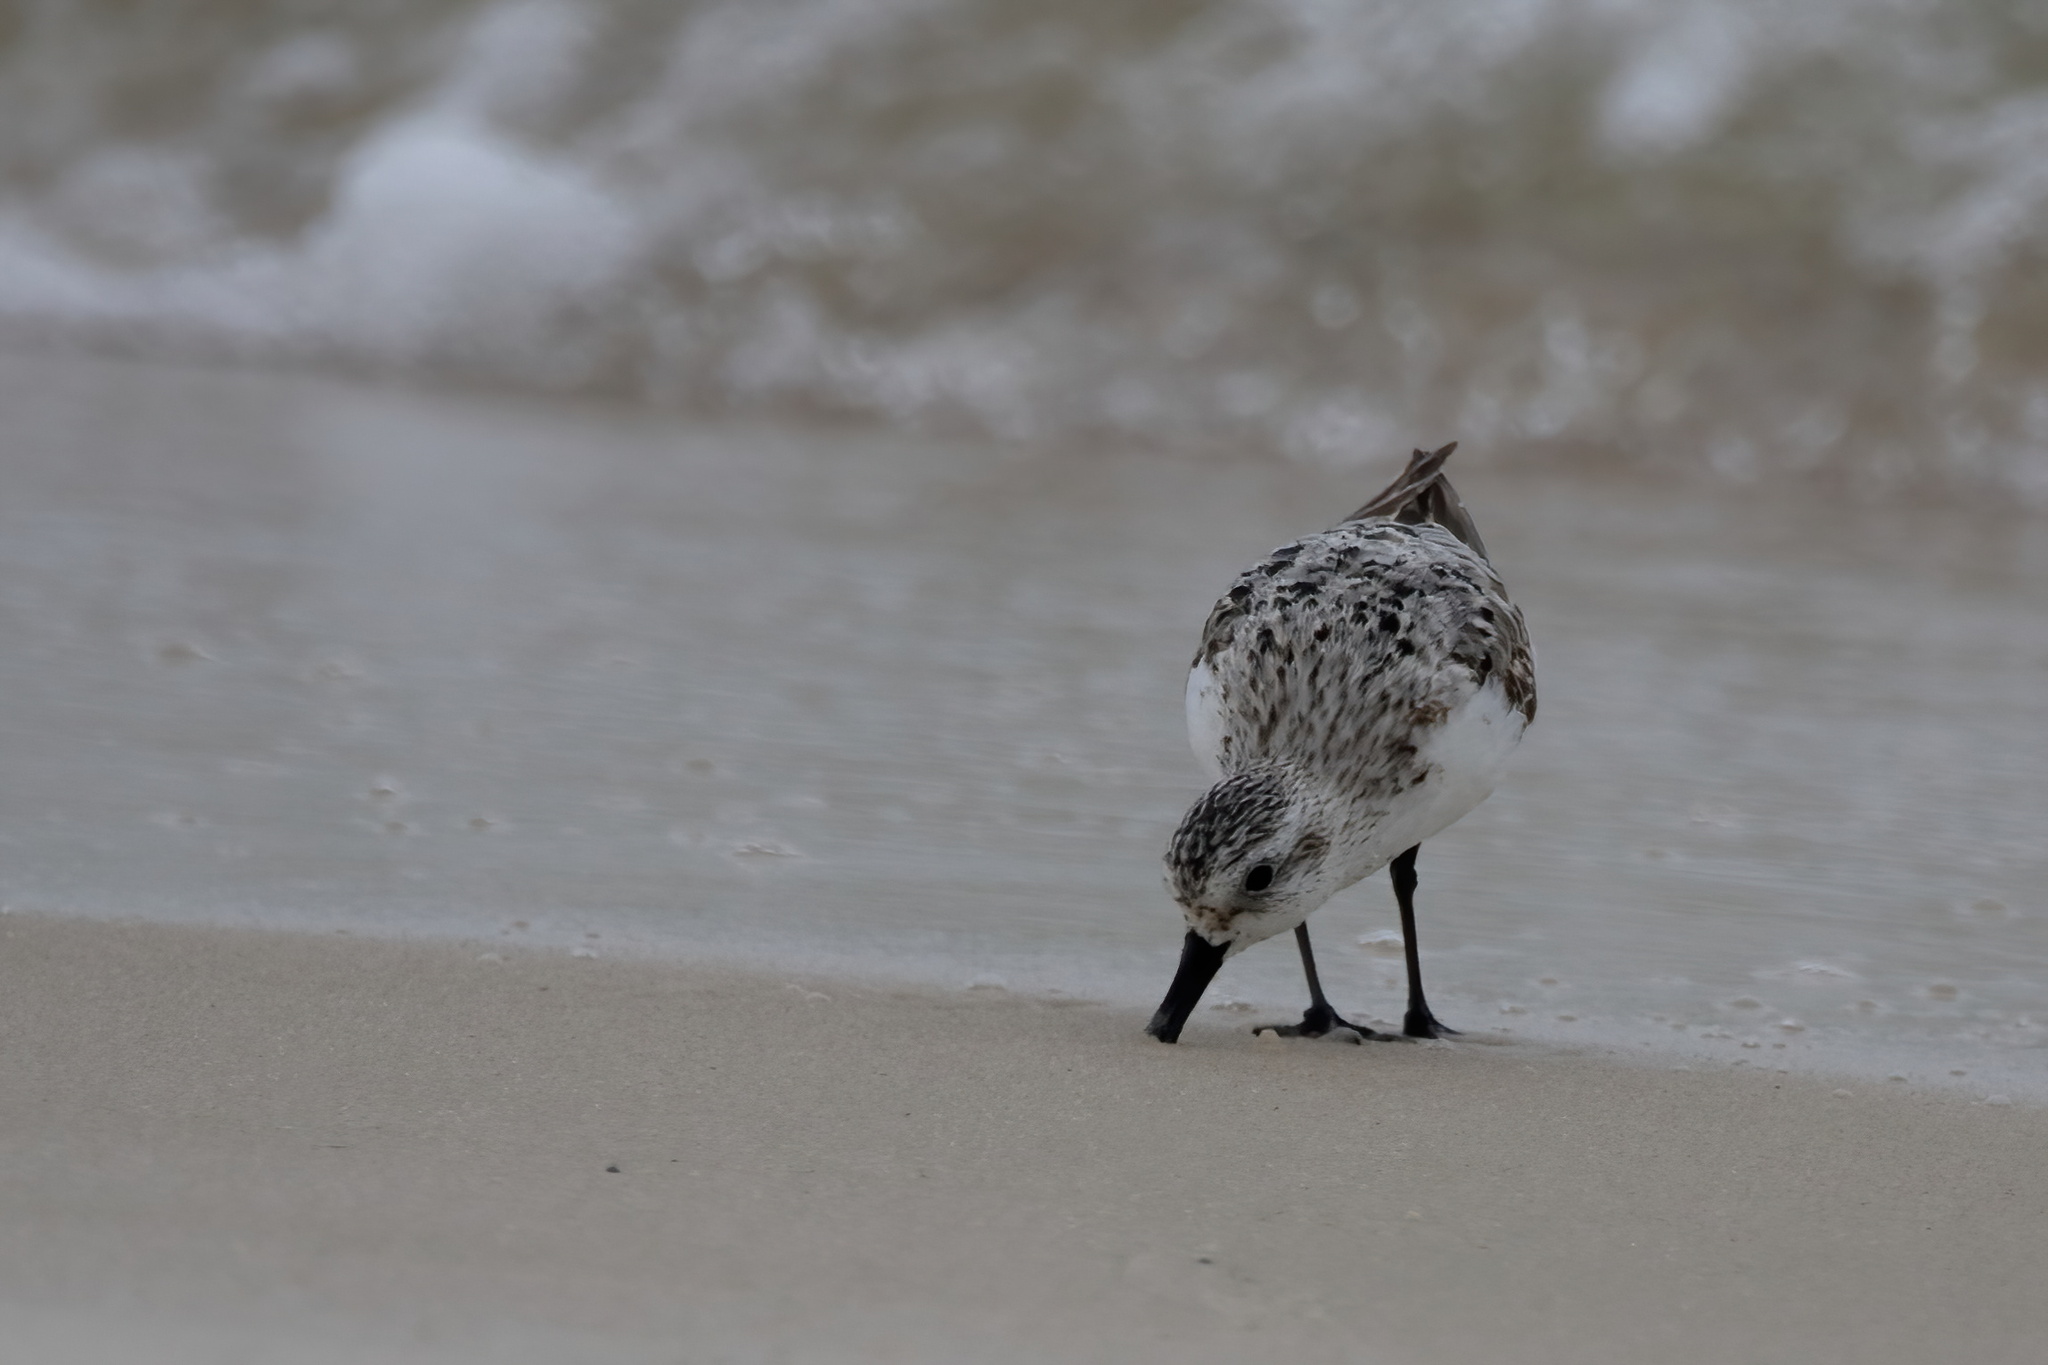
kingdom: Animalia
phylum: Chordata
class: Aves
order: Charadriiformes
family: Scolopacidae
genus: Calidris
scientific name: Calidris alba
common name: Sanderling
